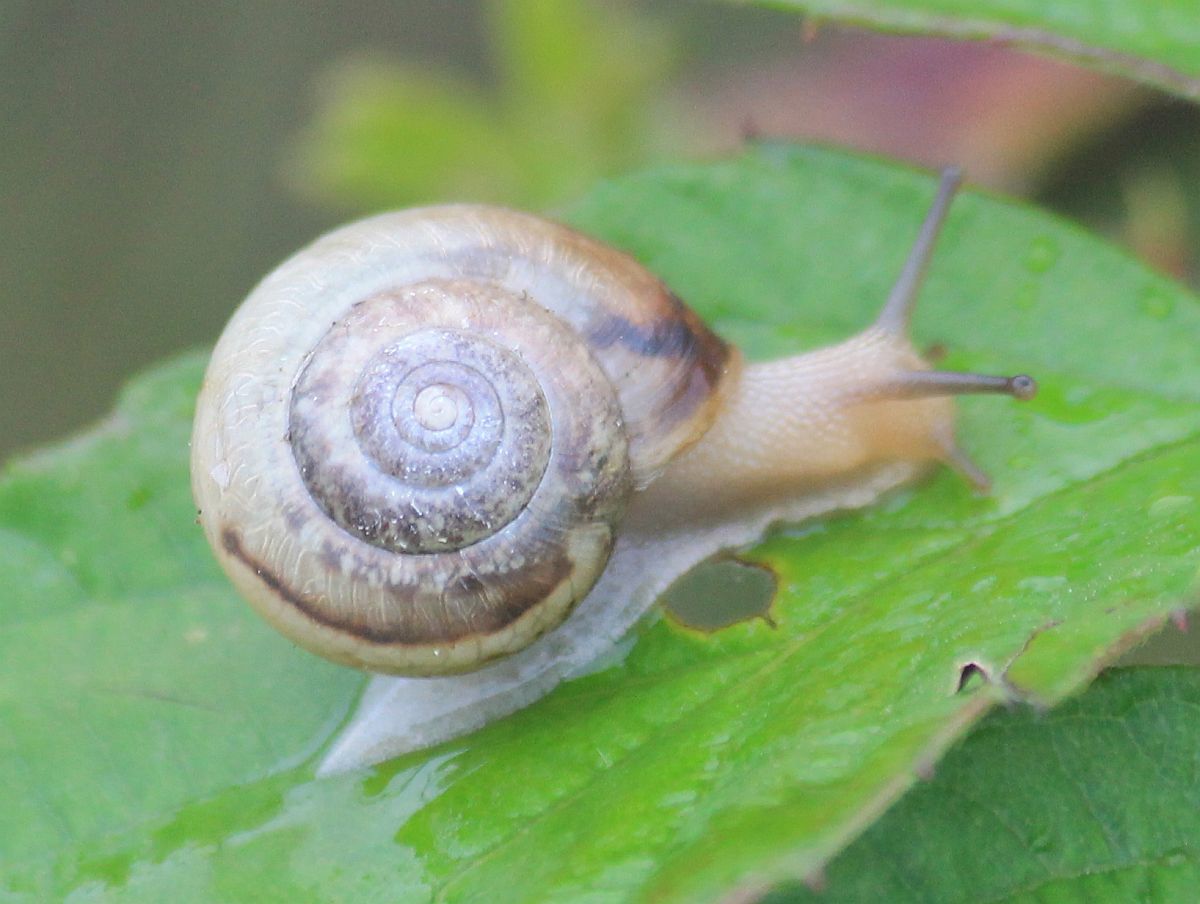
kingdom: Animalia
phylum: Mollusca
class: Gastropoda
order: Stylommatophora
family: Hygromiidae
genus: Monacha
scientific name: Monacha cantiana
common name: Kentish snail
